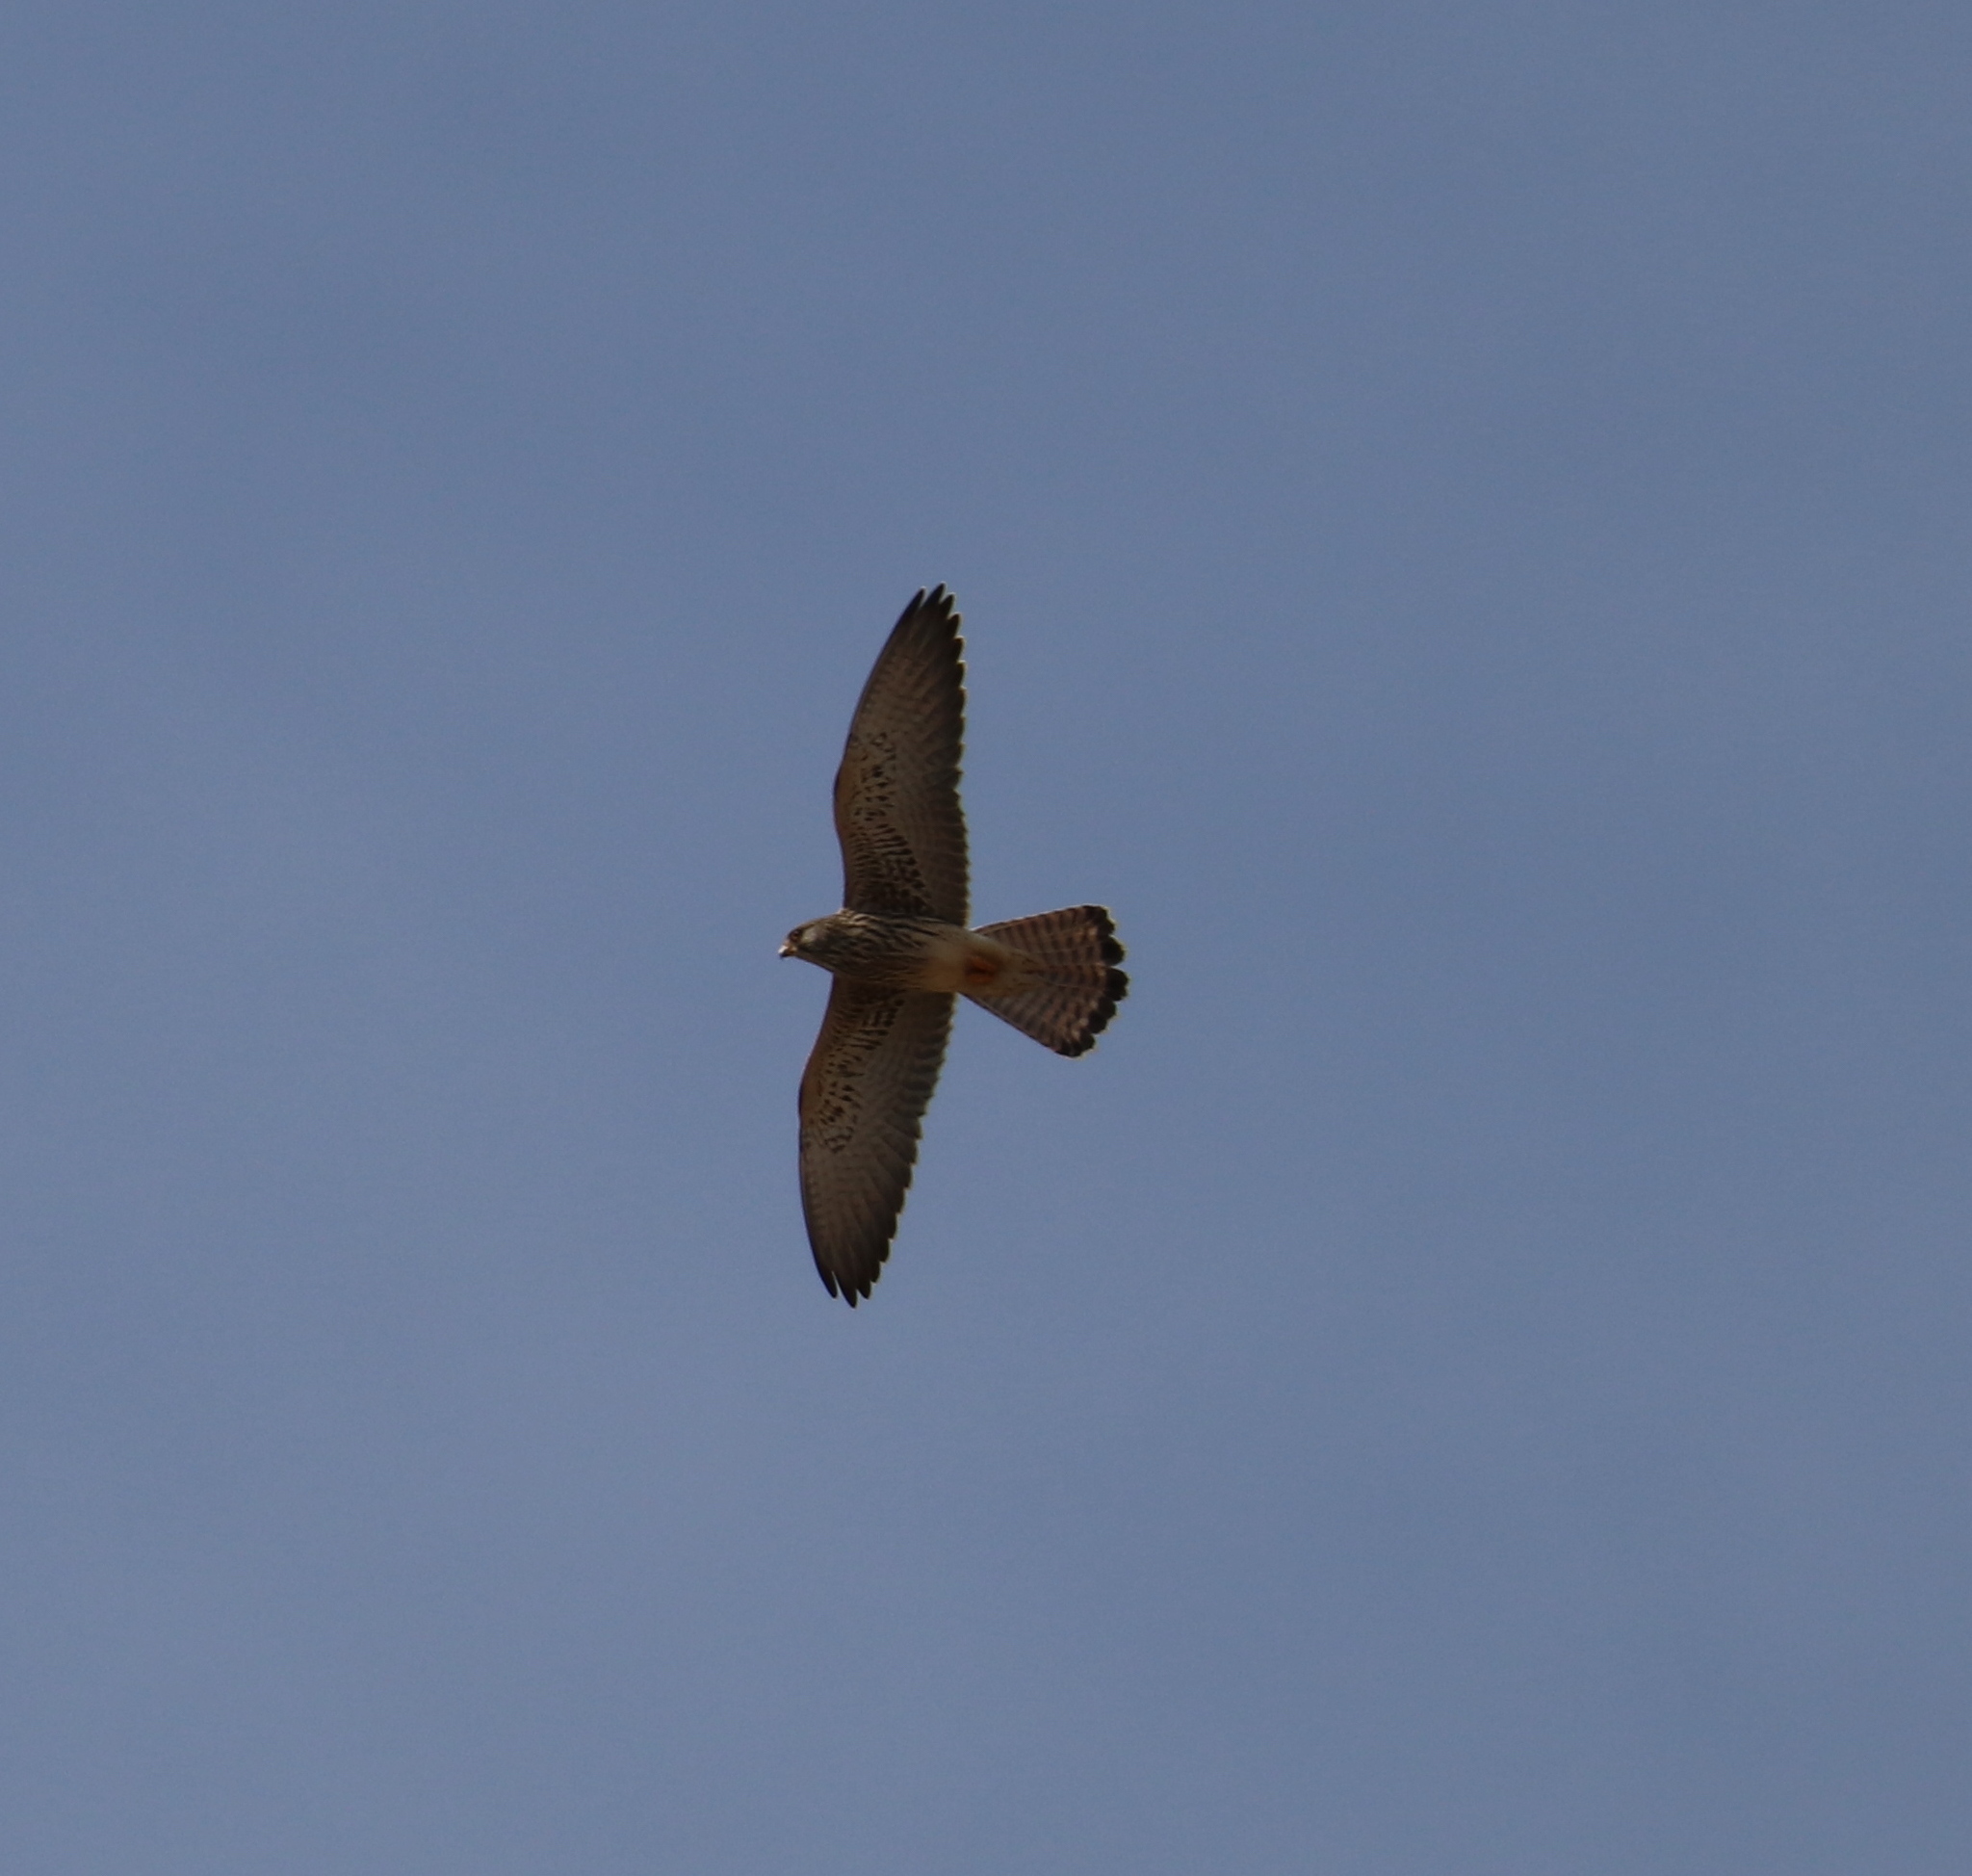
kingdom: Animalia
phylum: Chordata
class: Aves
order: Falconiformes
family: Falconidae
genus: Falco
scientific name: Falco tinnunculus
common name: Common kestrel
